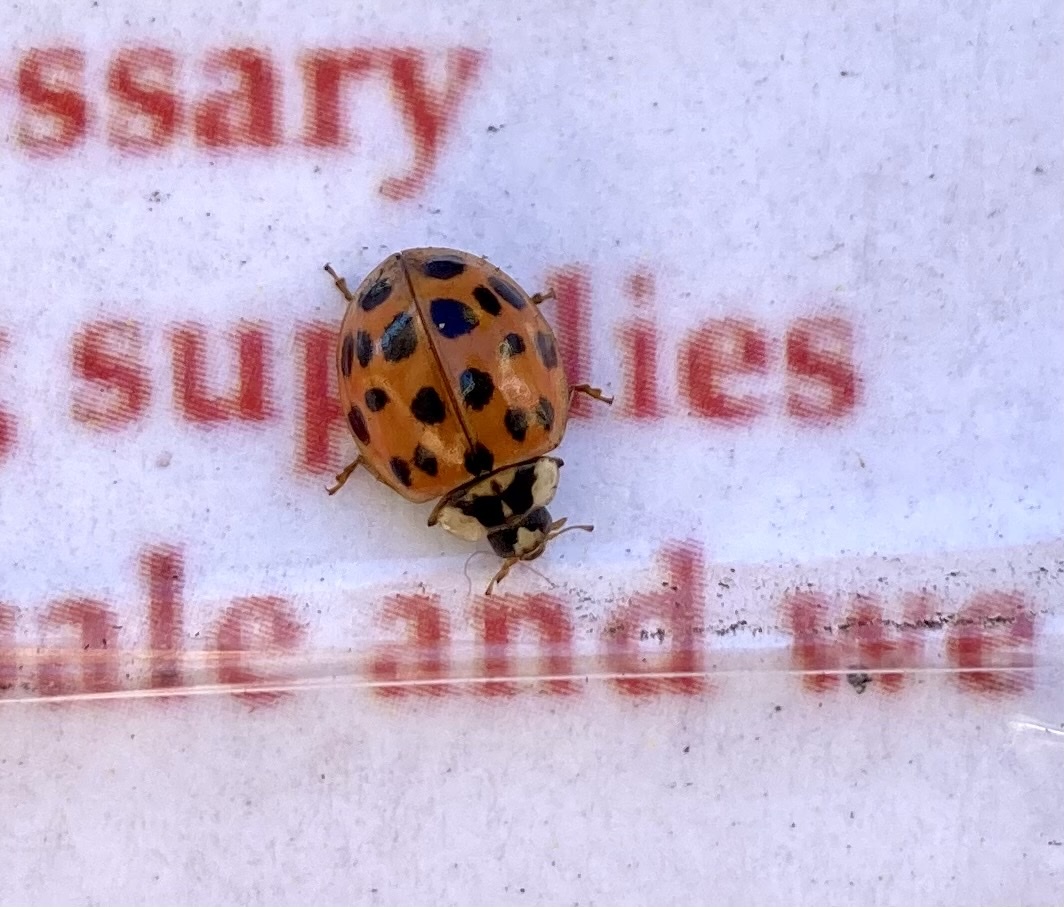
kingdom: Animalia
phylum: Arthropoda
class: Insecta
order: Coleoptera
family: Coccinellidae
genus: Harmonia
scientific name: Harmonia axyridis
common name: Harlequin ladybird
